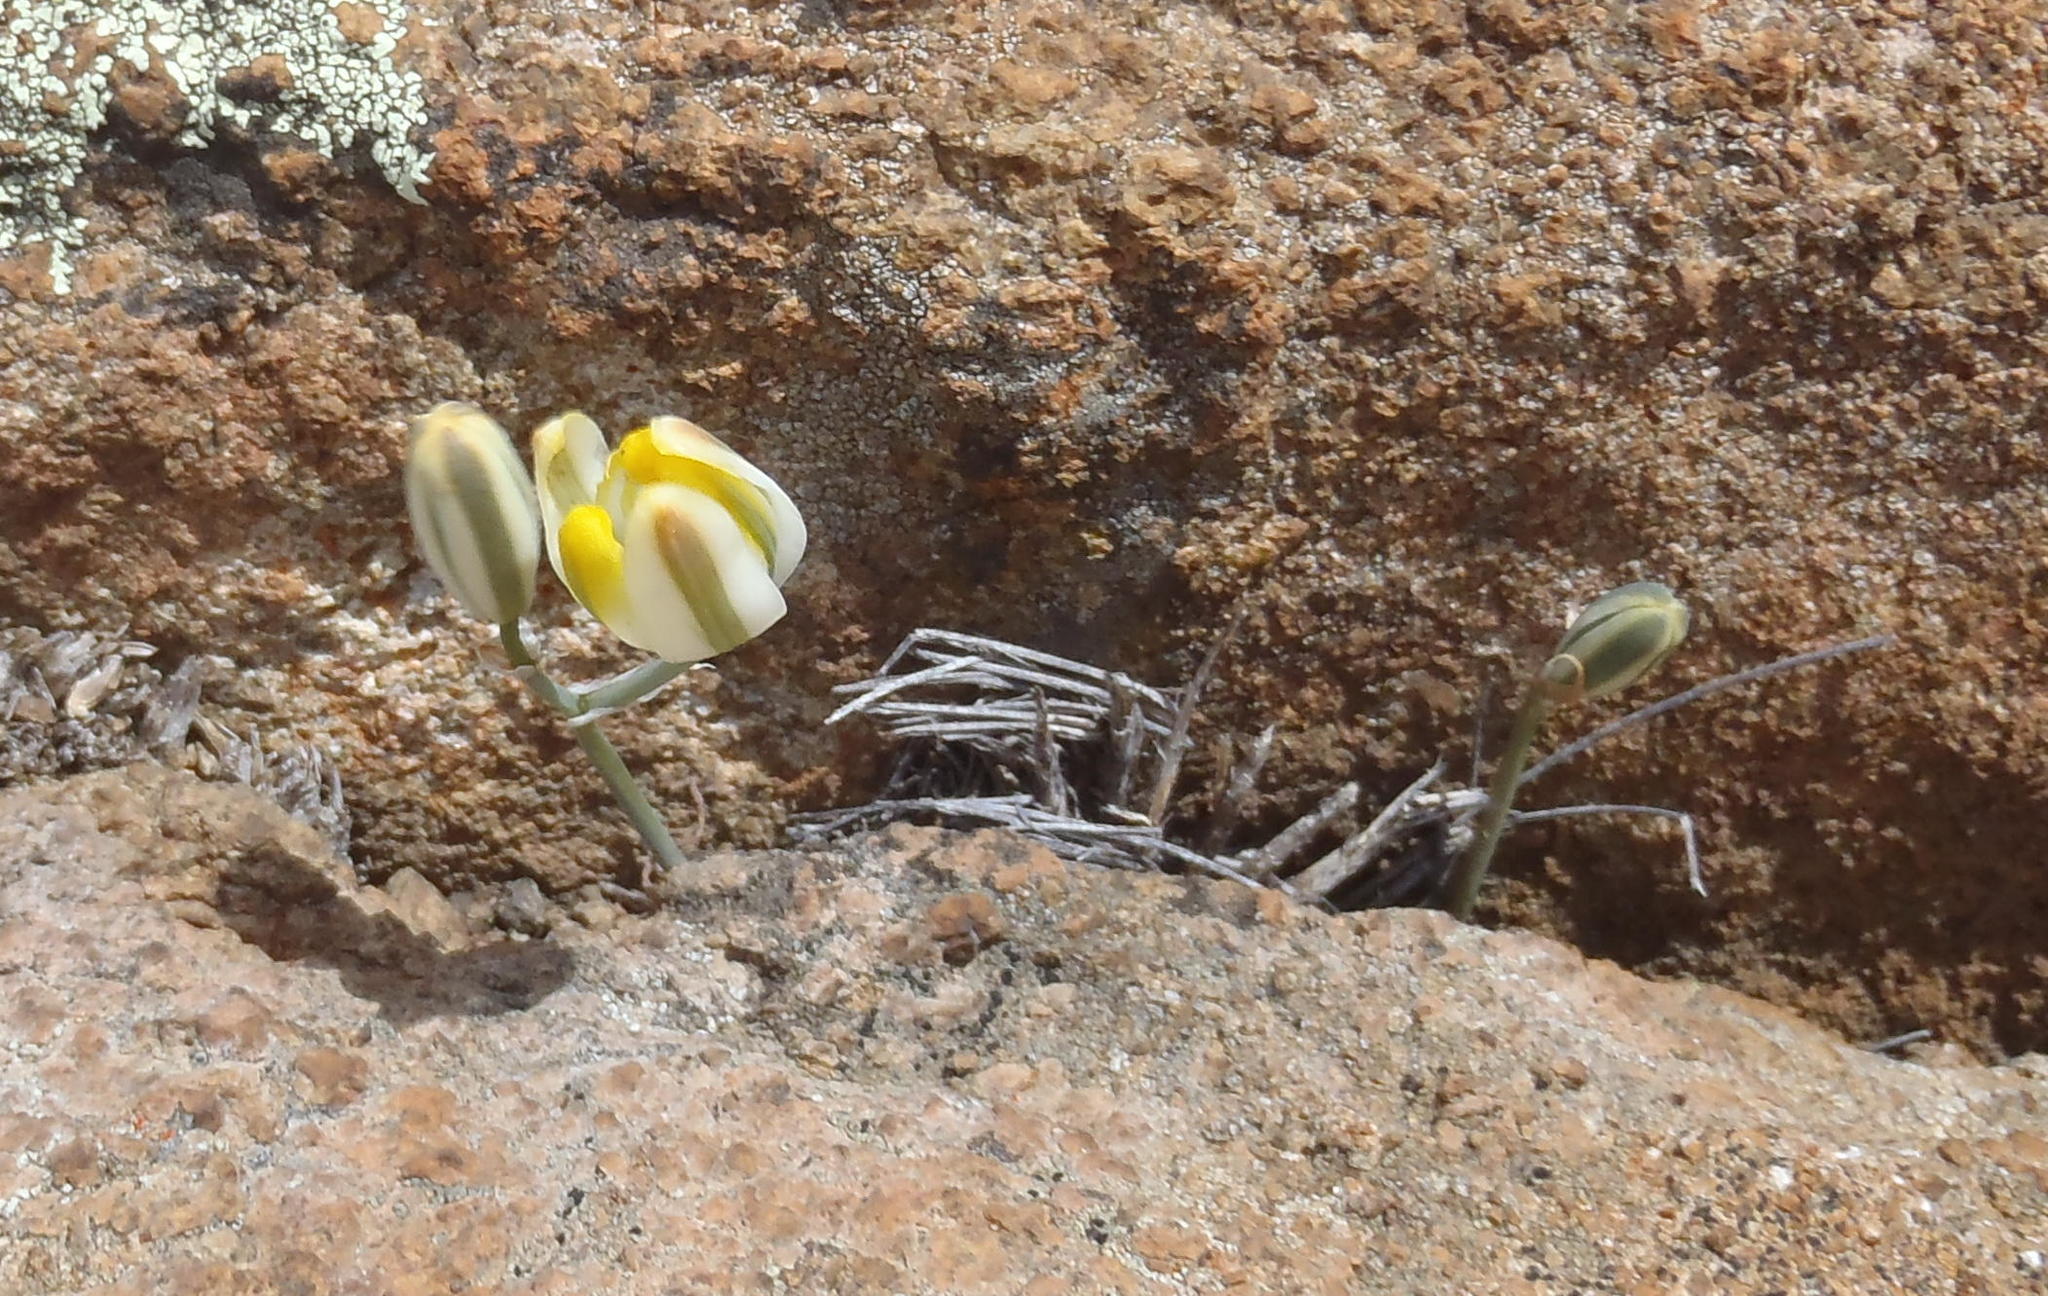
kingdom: Plantae
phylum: Tracheophyta
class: Liliopsida
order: Asparagales
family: Asparagaceae
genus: Albuca
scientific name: Albuca setosa
